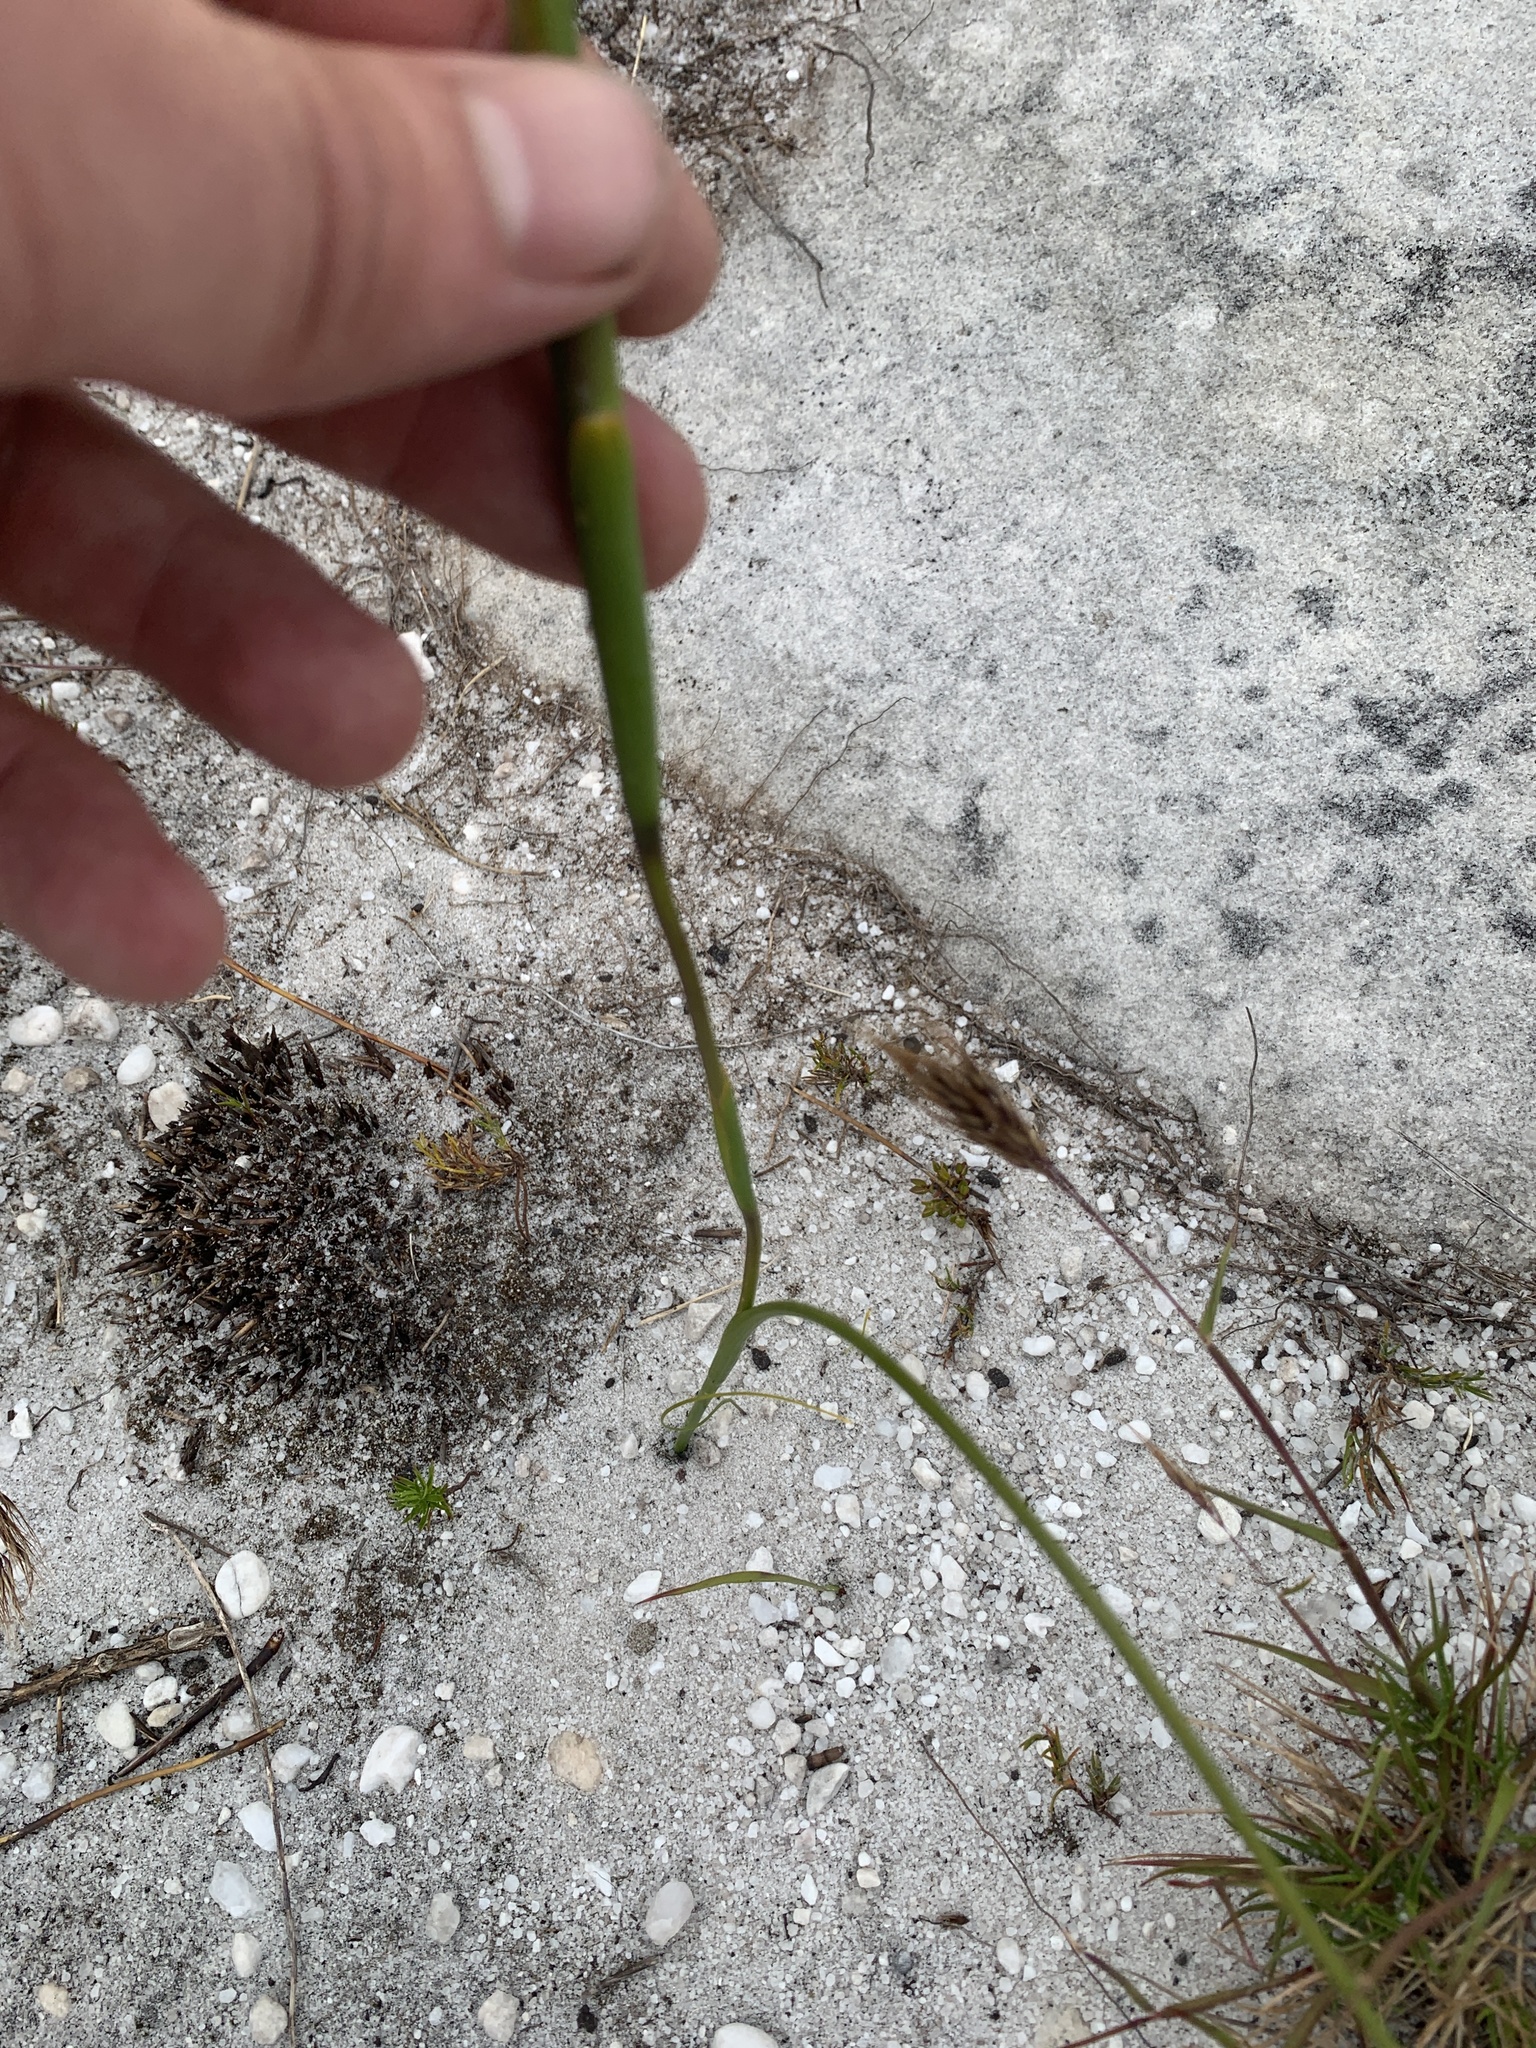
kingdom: Plantae
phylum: Tracheophyta
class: Liliopsida
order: Asparagales
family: Iridaceae
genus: Moraea
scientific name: Moraea neglecta
